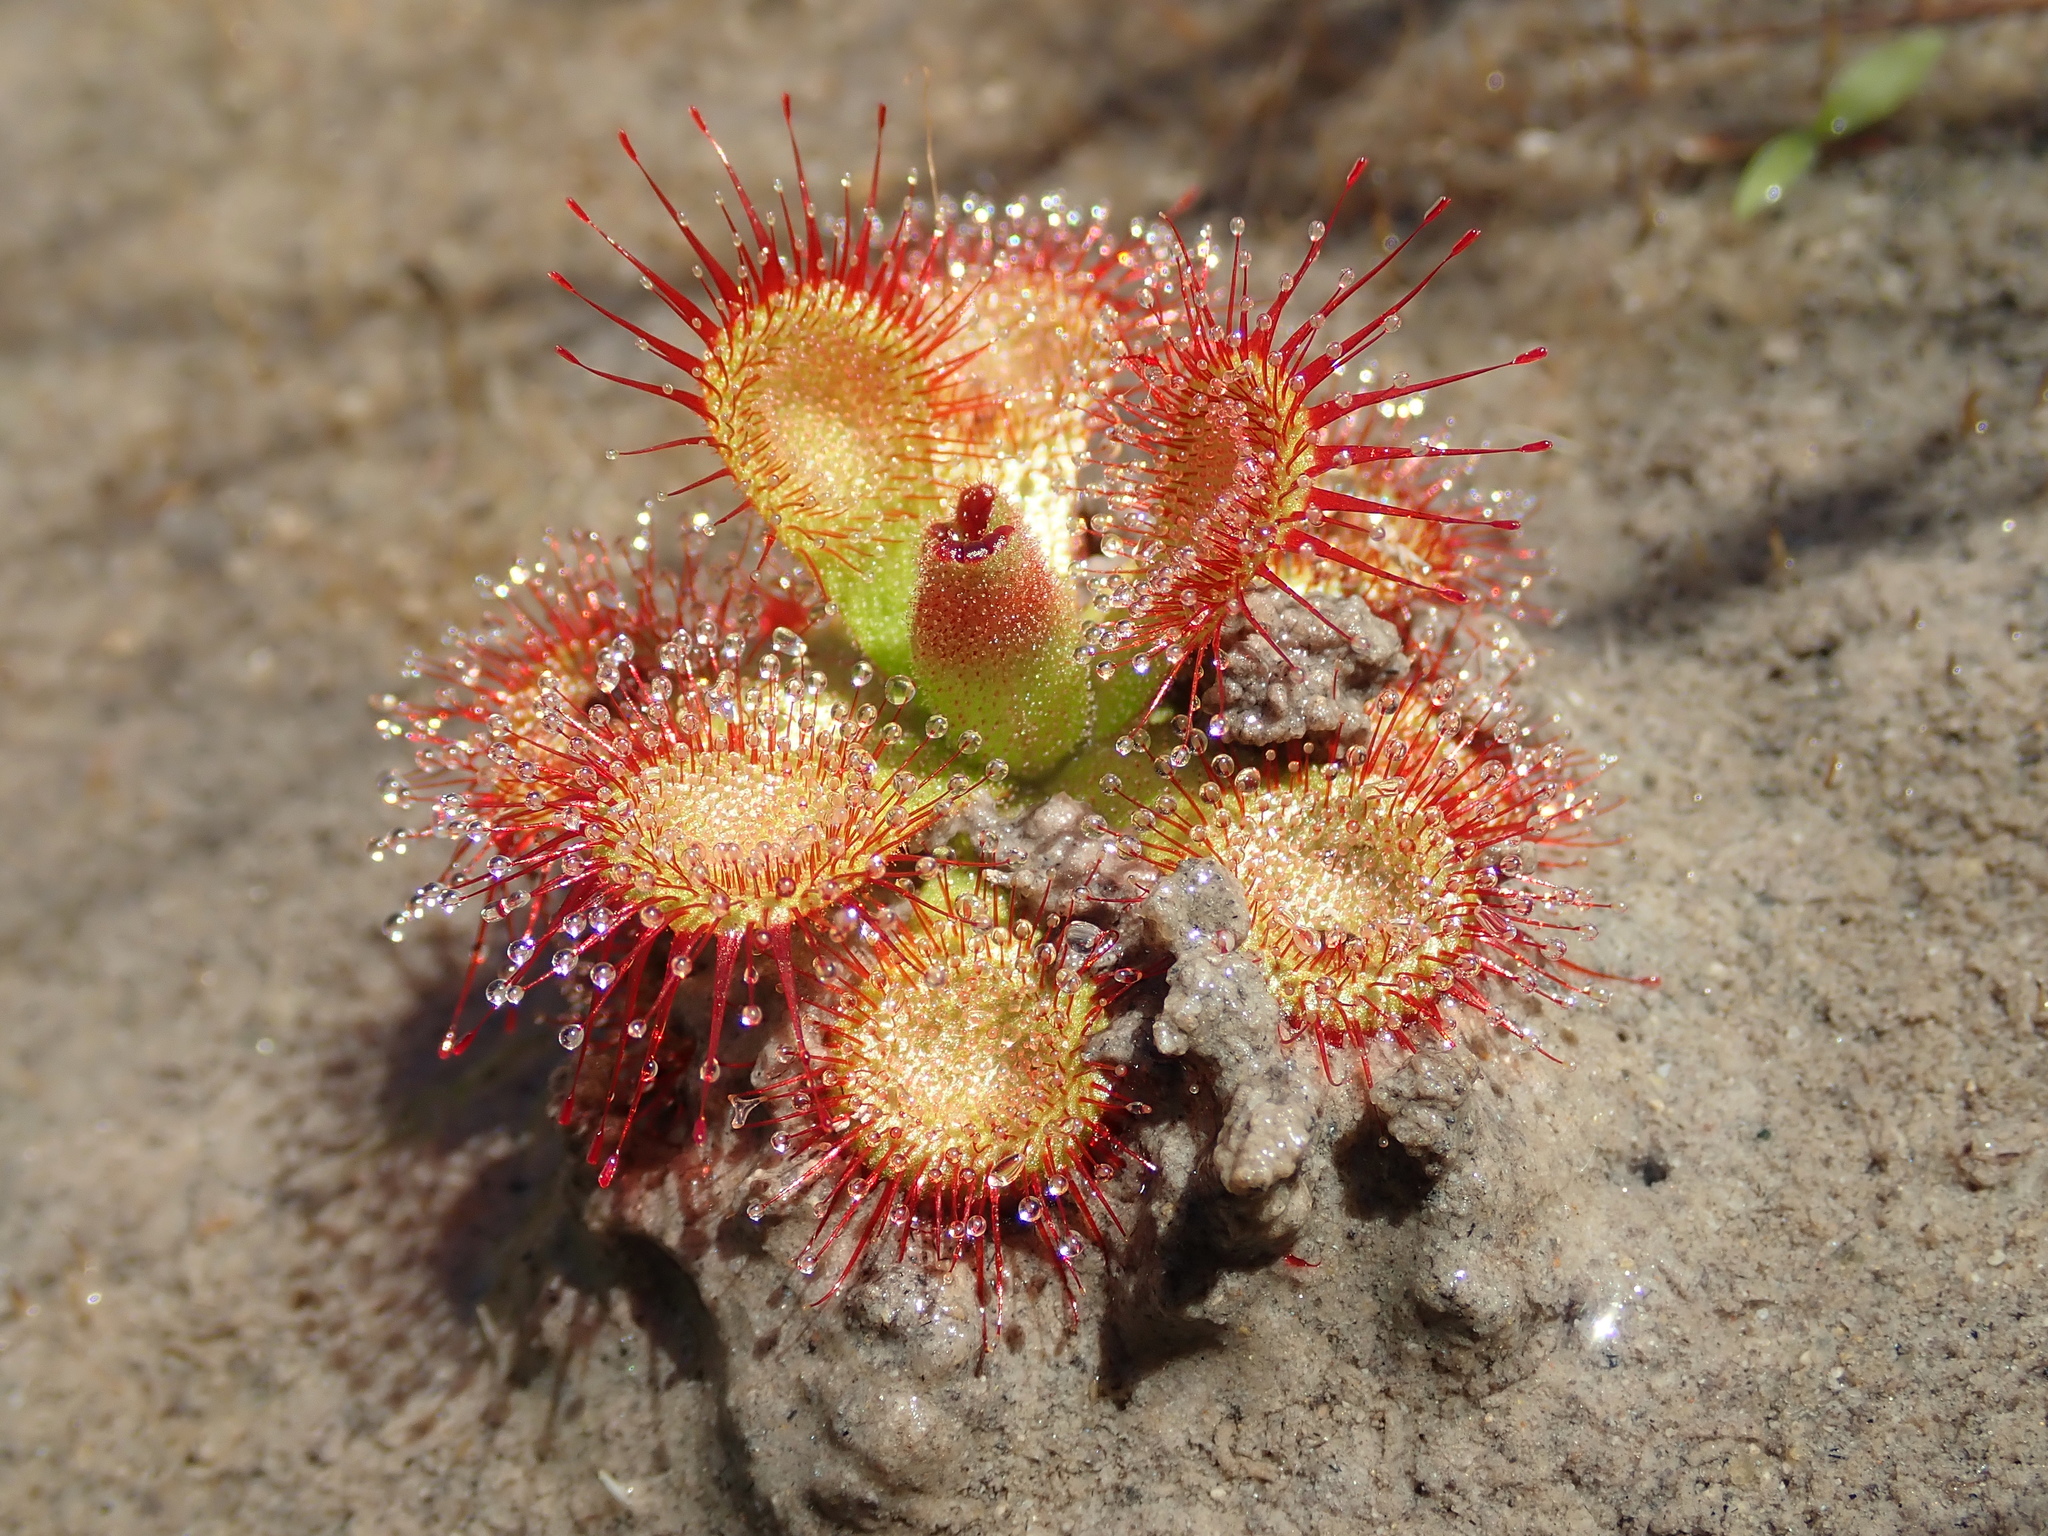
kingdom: Plantae
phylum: Tracheophyta
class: Magnoliopsida
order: Caryophyllales
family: Droseraceae
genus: Drosera
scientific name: Drosera sessilifolia
